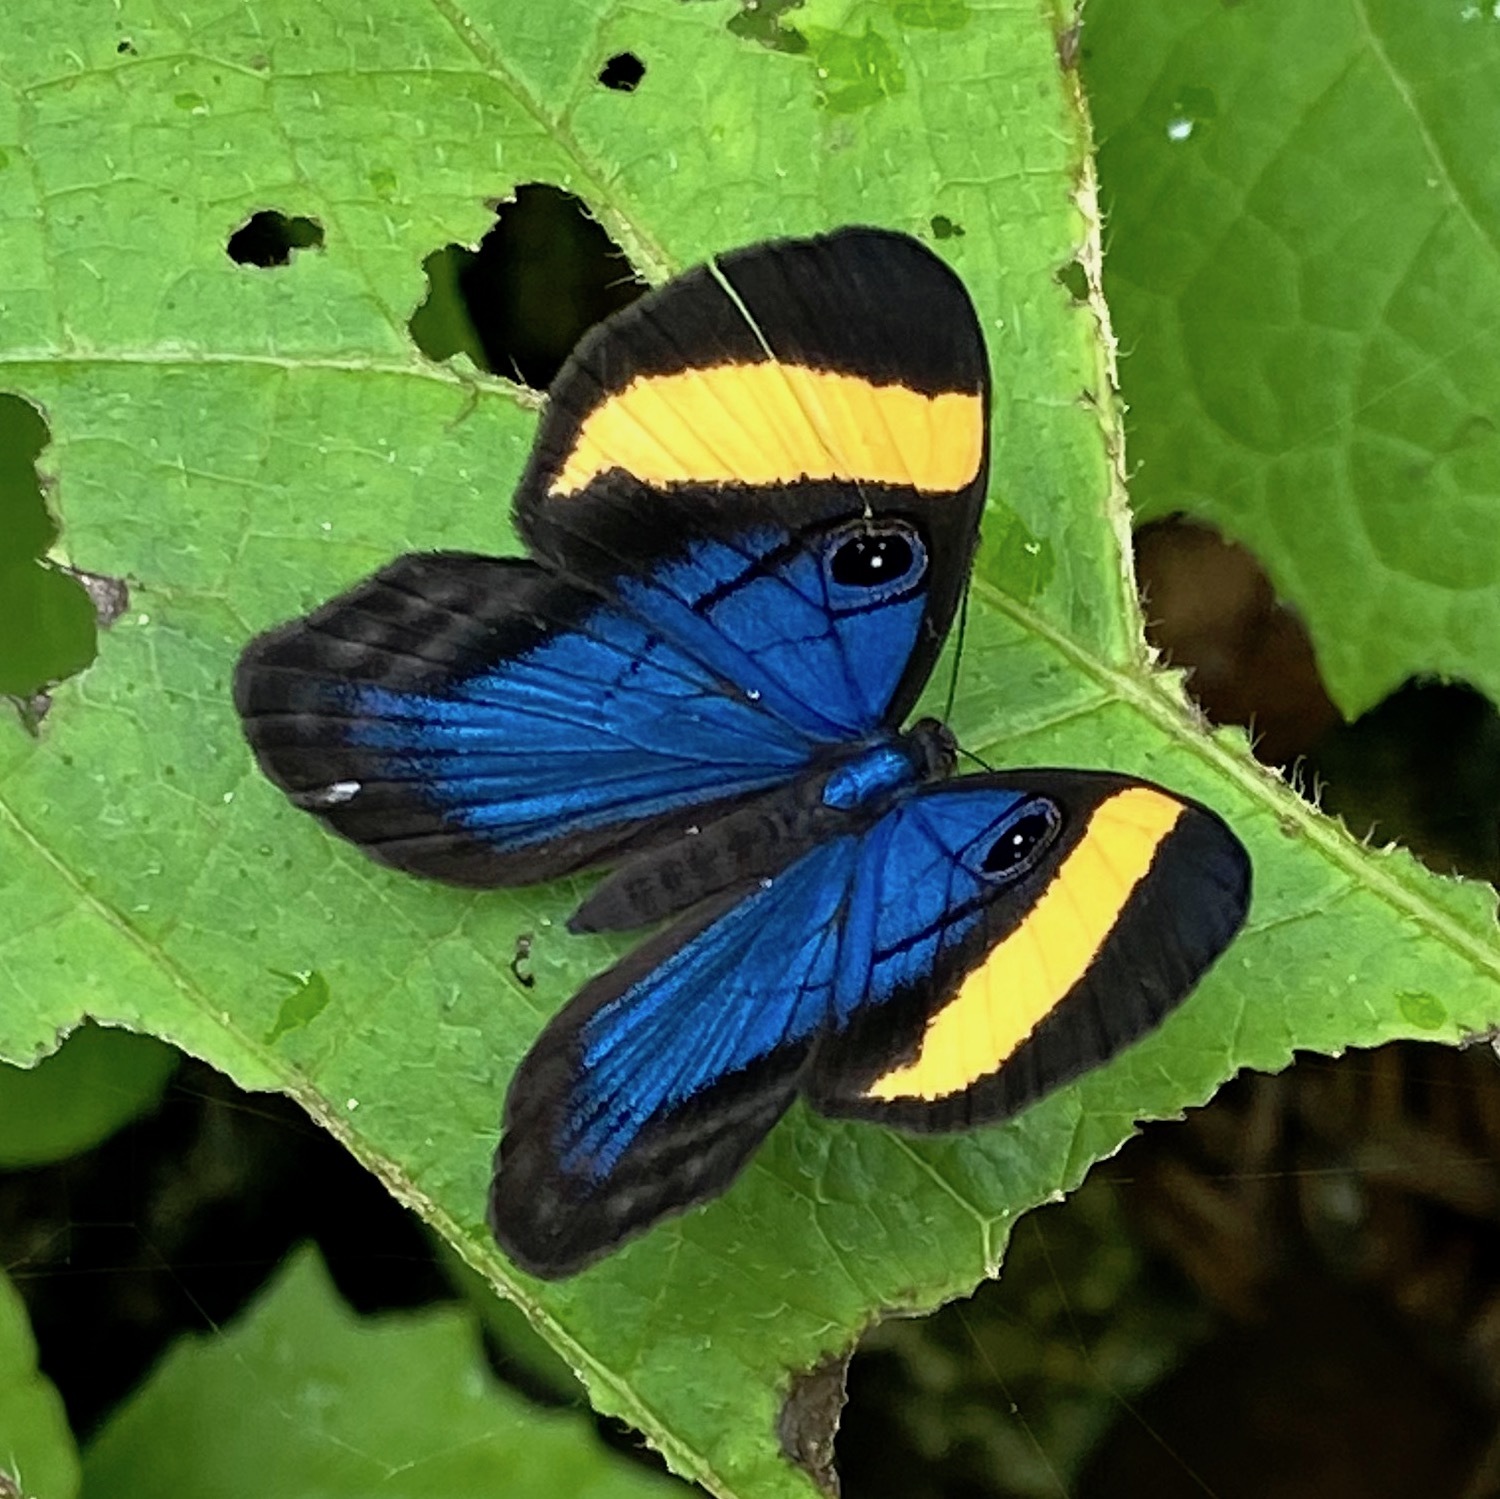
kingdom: Animalia
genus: Mesosemia
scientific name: Mesosemia mevania
